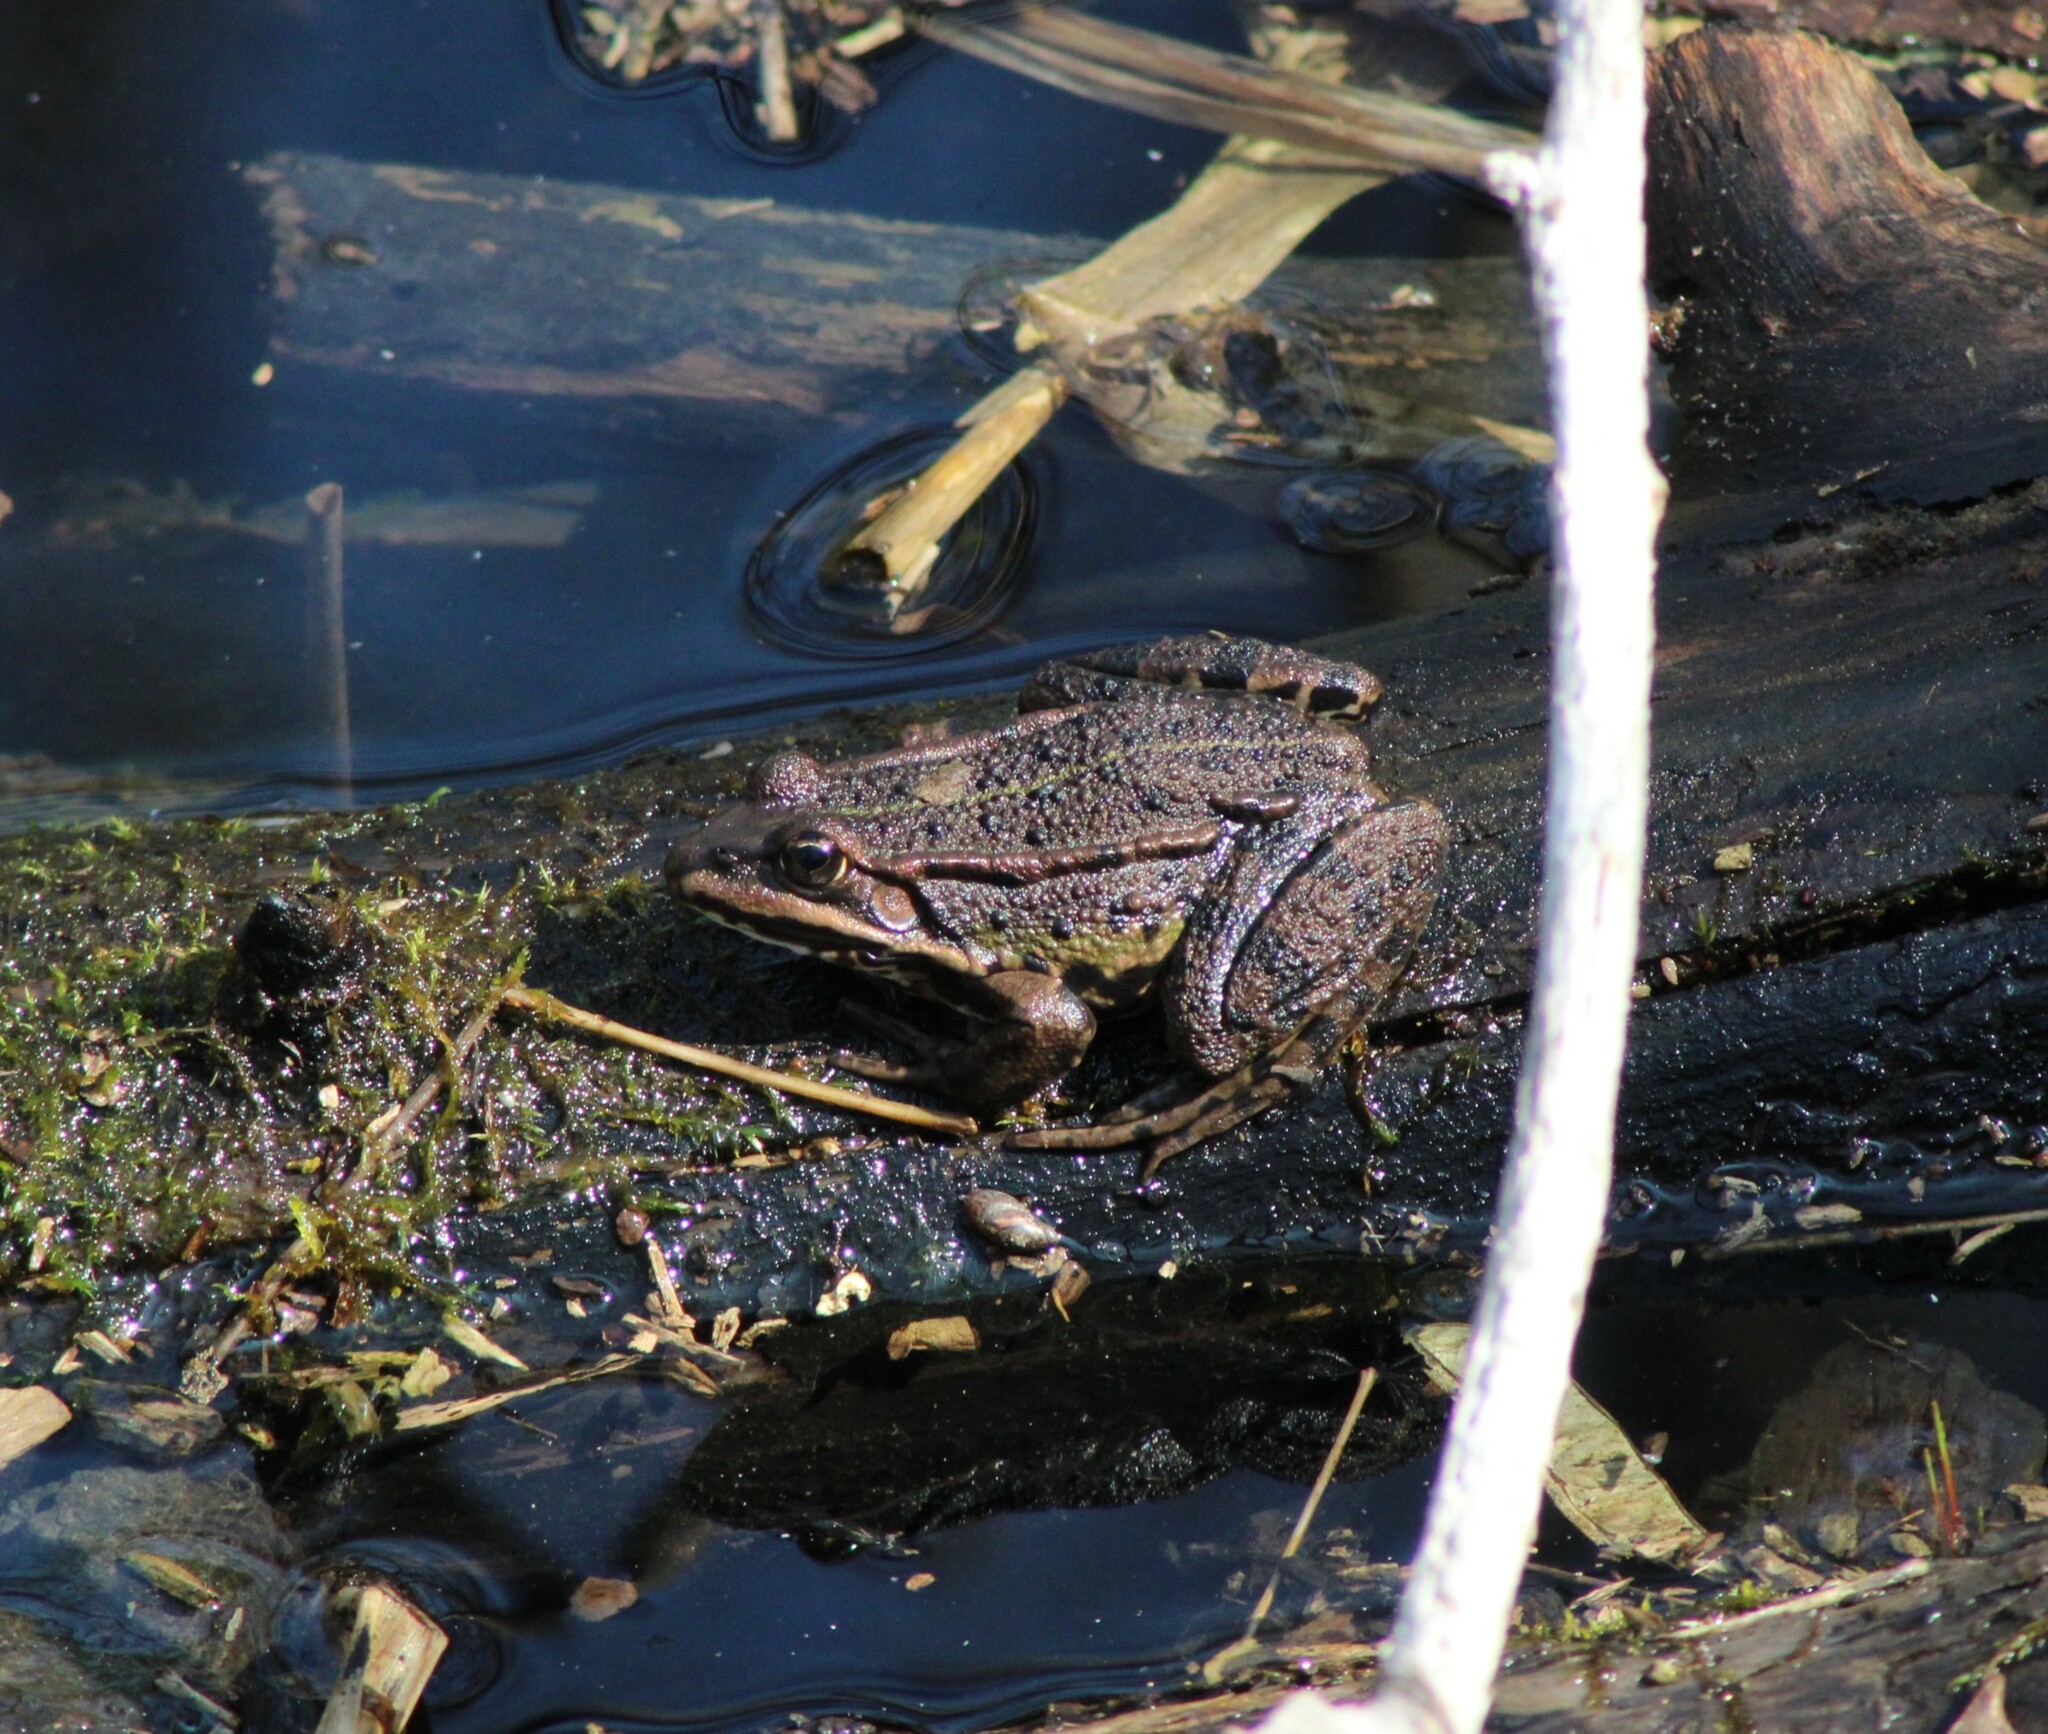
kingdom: Animalia
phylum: Chordata
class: Amphibia
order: Anura
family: Ranidae
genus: Pelophylax
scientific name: Pelophylax
